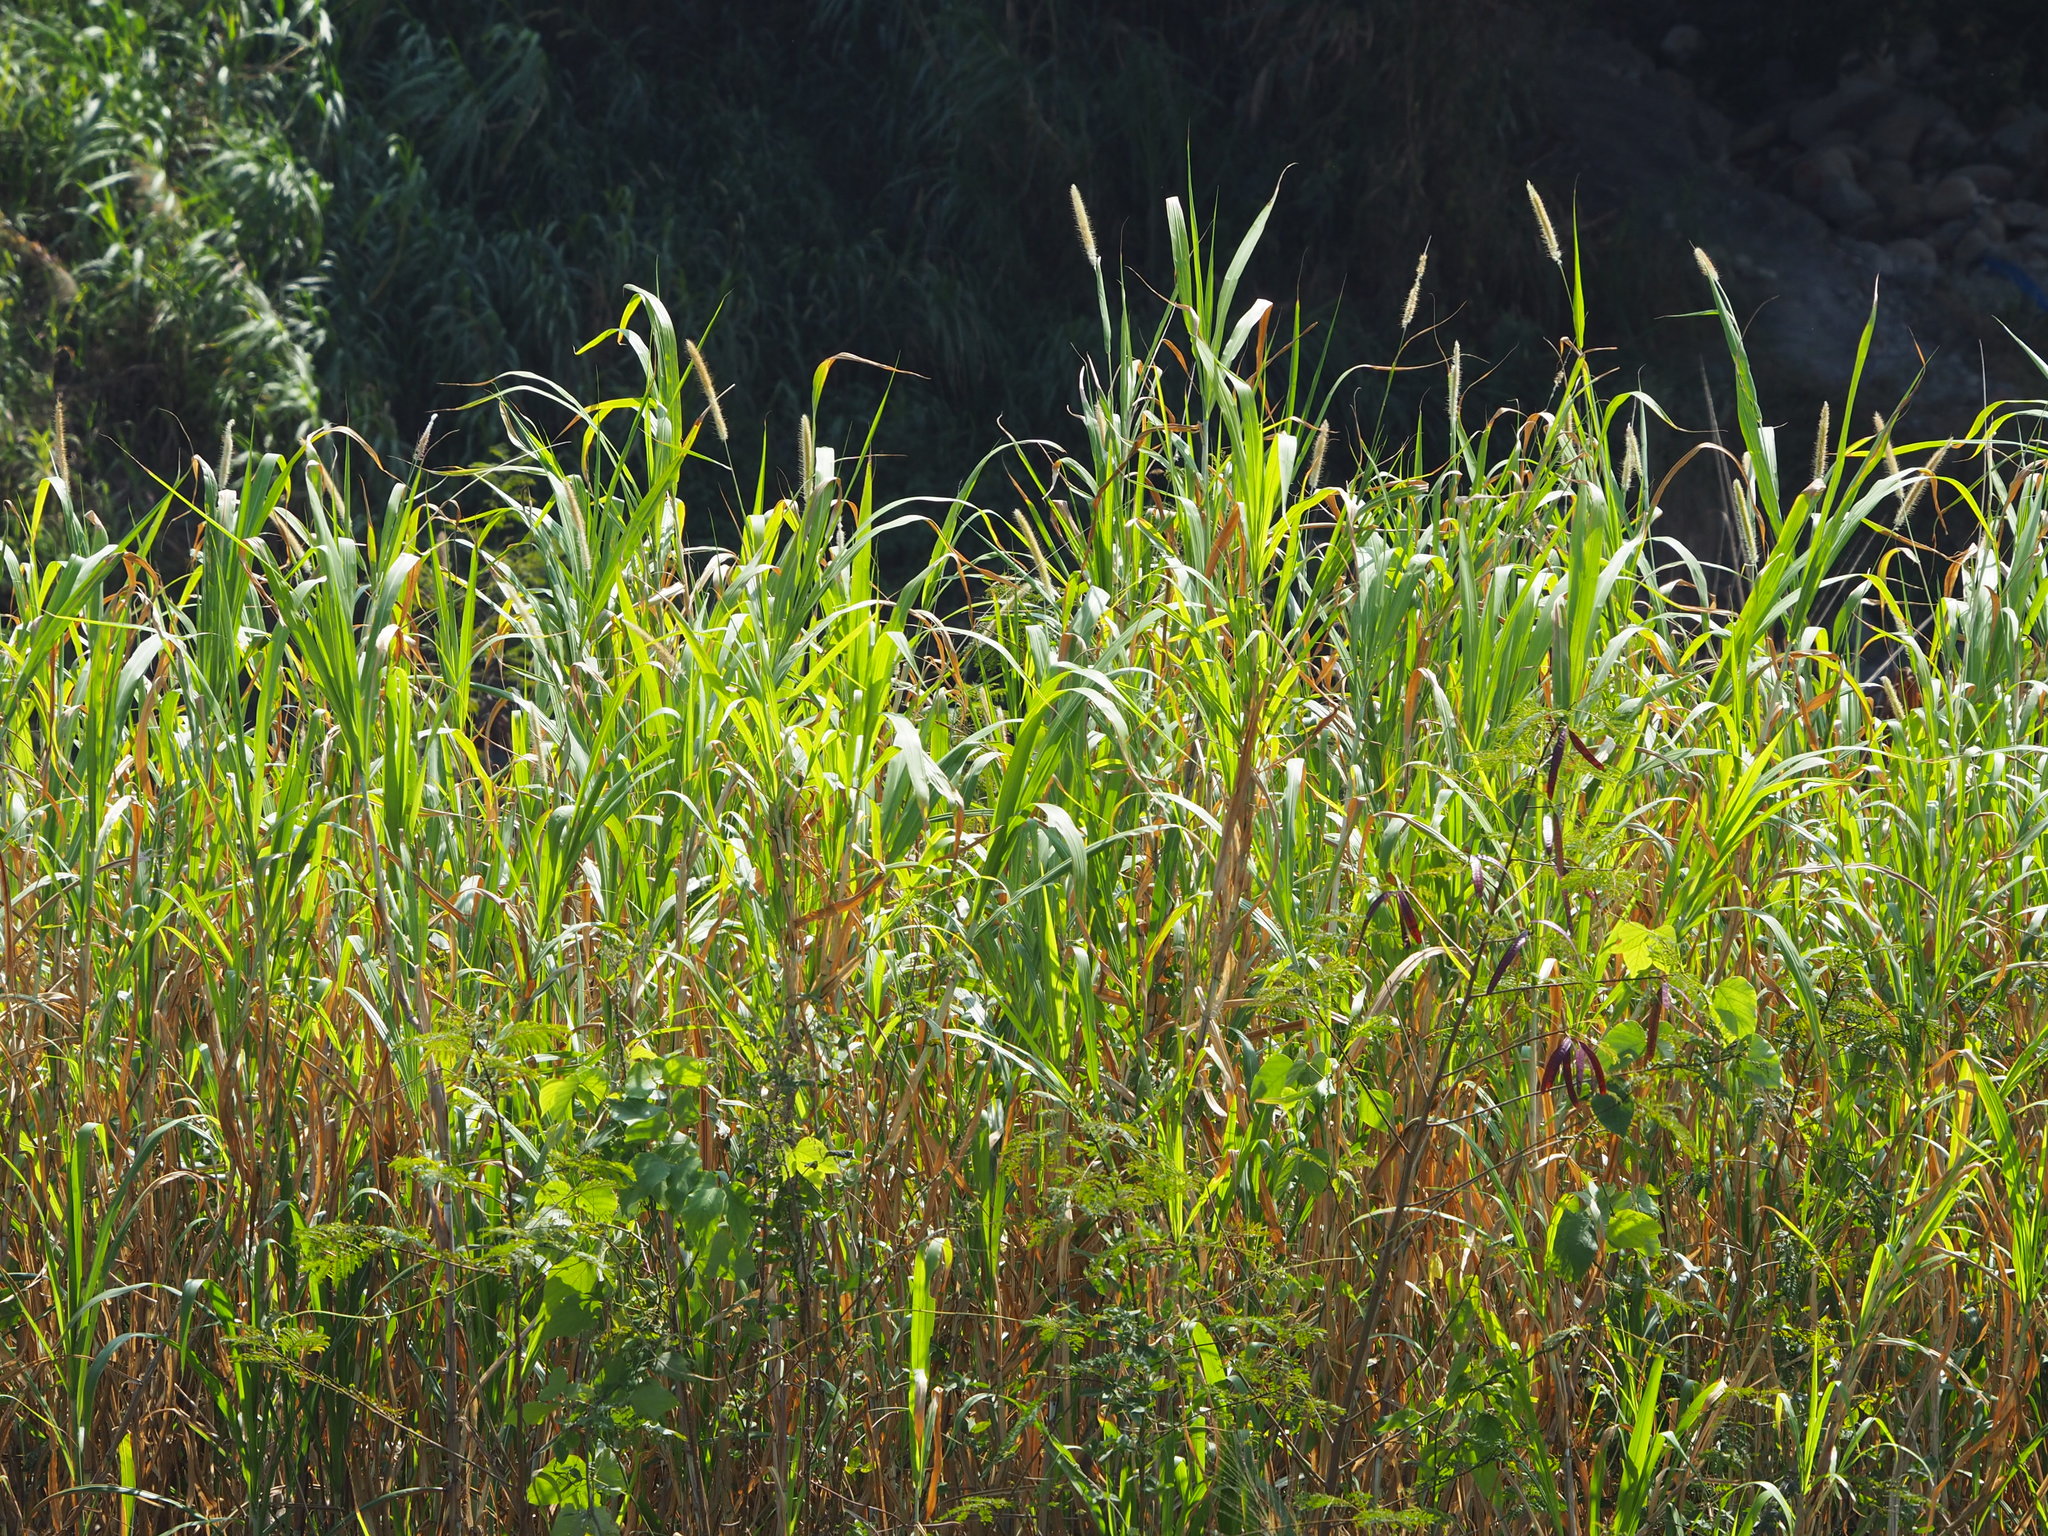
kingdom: Plantae
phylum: Tracheophyta
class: Liliopsida
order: Poales
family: Poaceae
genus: Cenchrus
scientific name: Cenchrus purpureus
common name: Elephant grass
